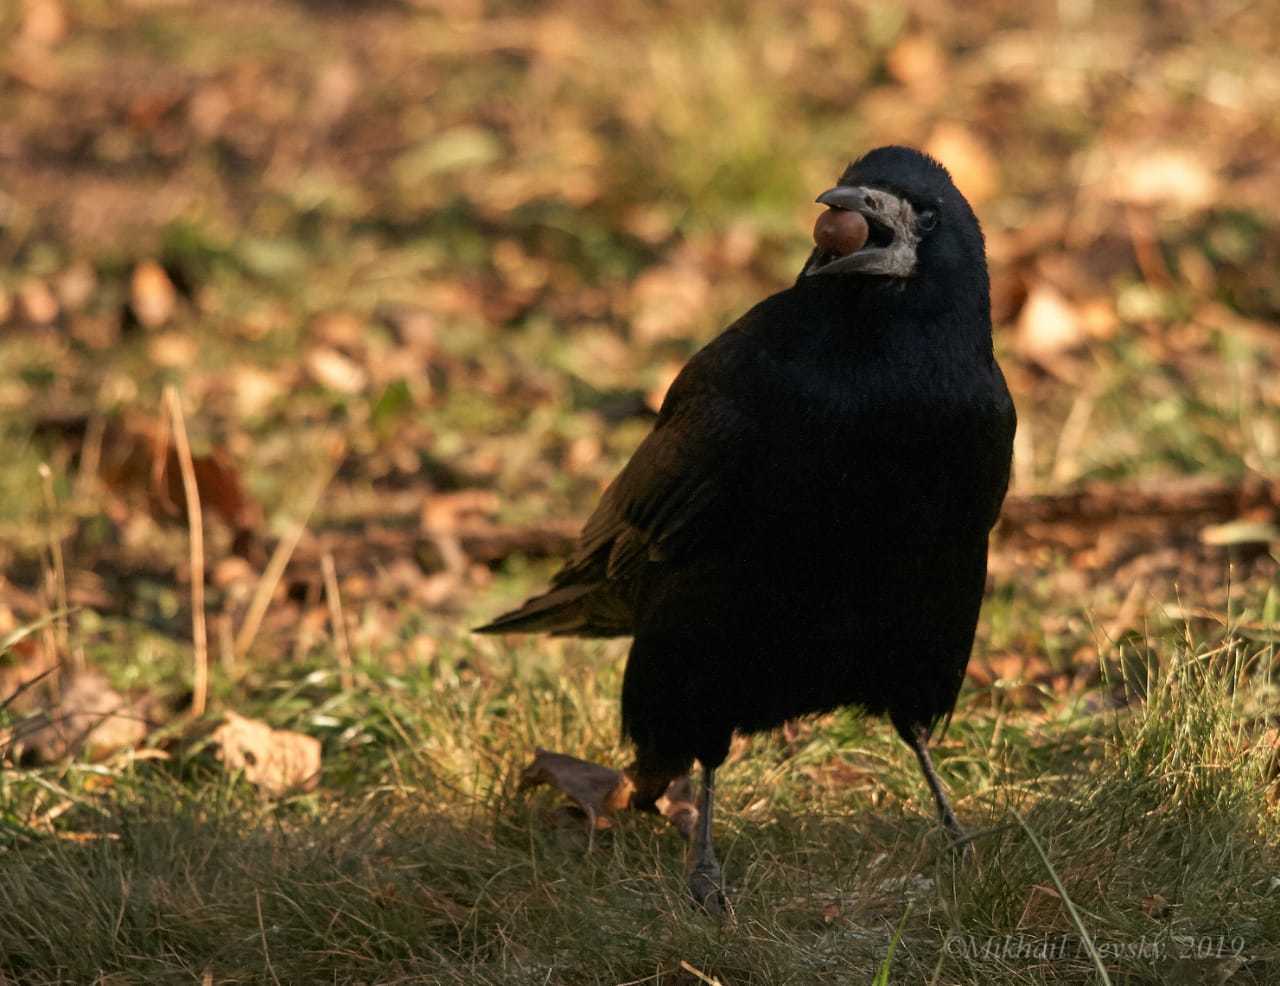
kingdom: Animalia
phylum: Chordata
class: Aves
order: Passeriformes
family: Corvidae
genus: Corvus
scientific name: Corvus frugilegus
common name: Rook
